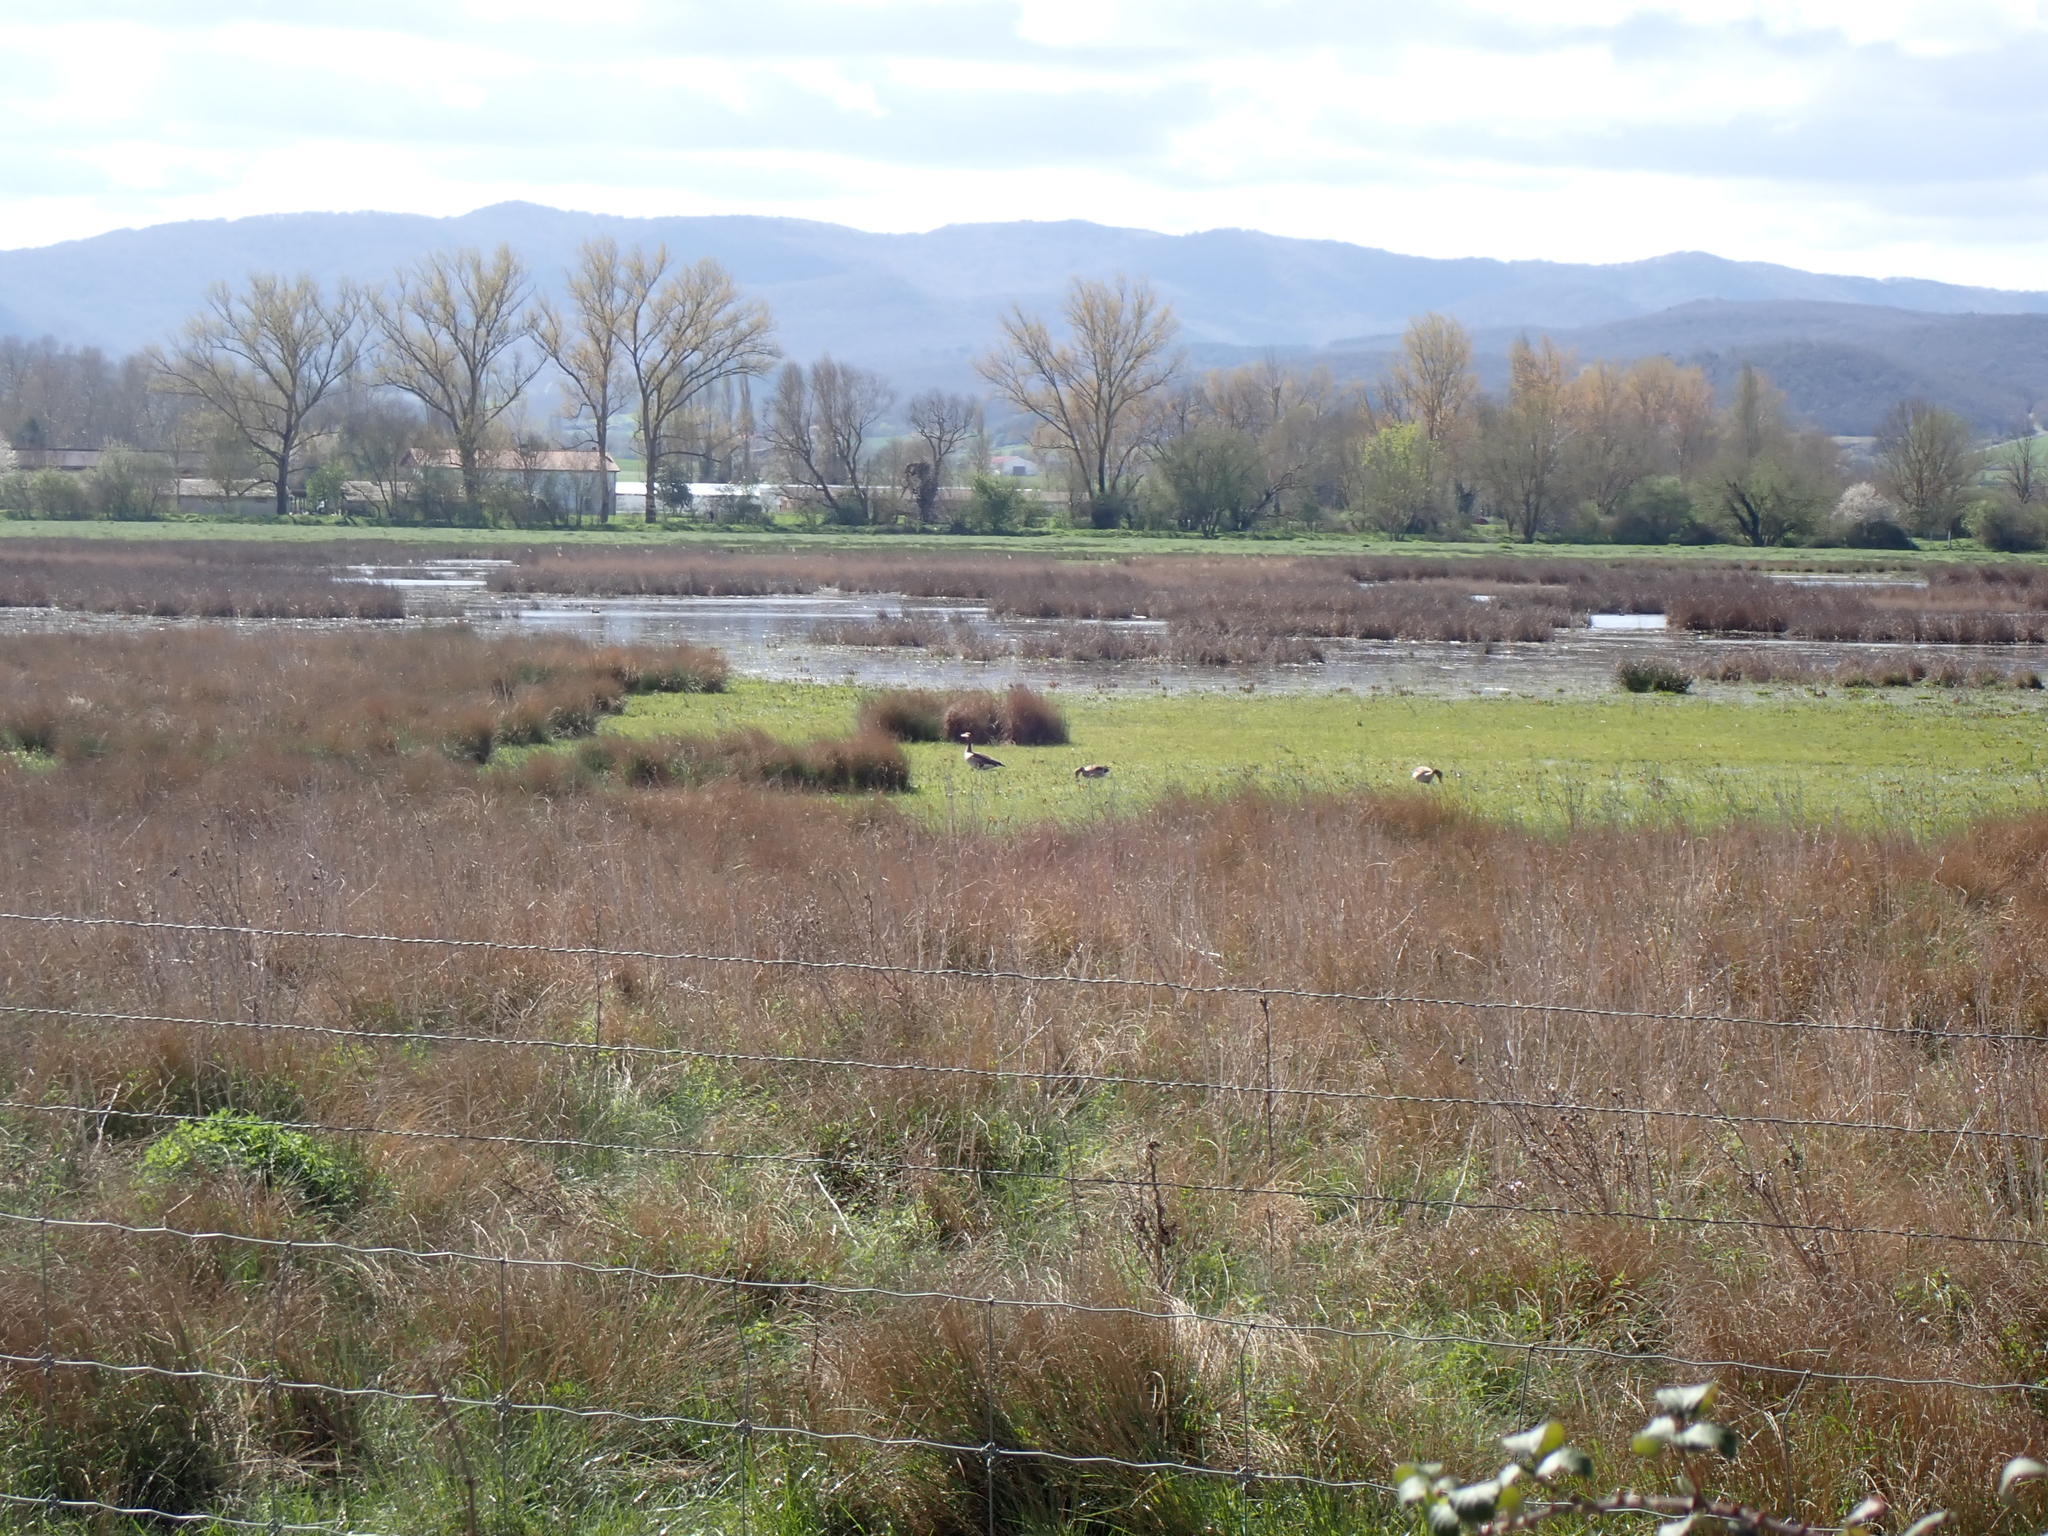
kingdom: Animalia
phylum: Chordata
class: Aves
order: Anseriformes
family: Anatidae
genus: Anser
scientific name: Anser anser
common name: Greylag goose
